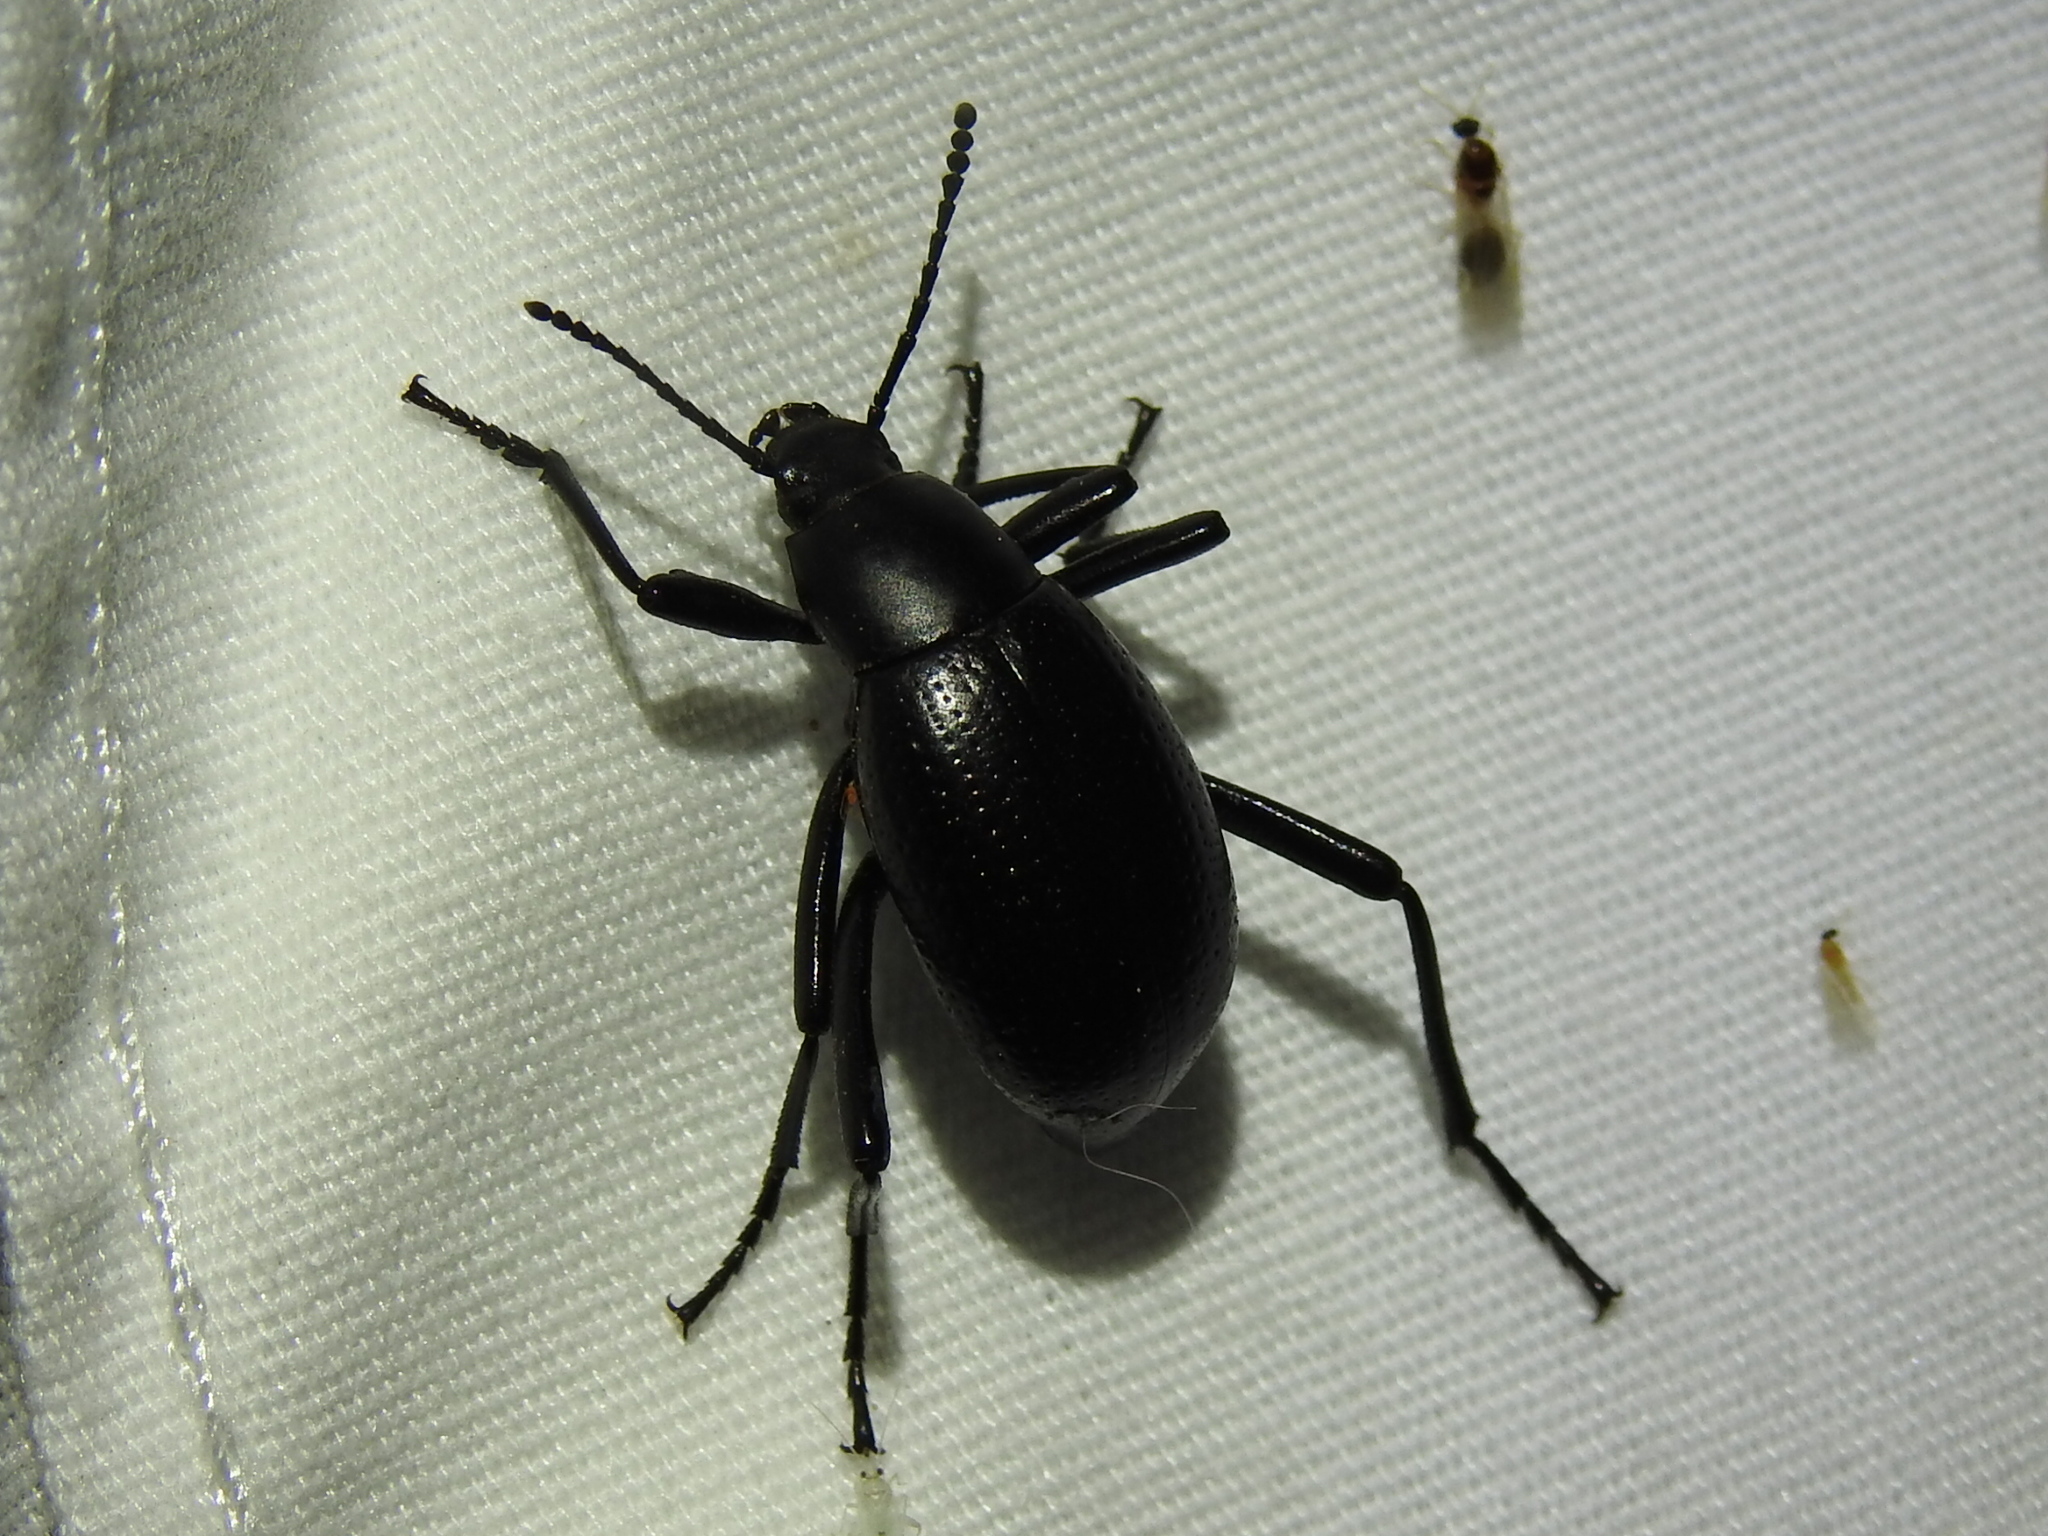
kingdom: Animalia
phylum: Arthropoda
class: Insecta
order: Coleoptera
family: Tenebrionidae
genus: Eleodes
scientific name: Eleodes goryi
